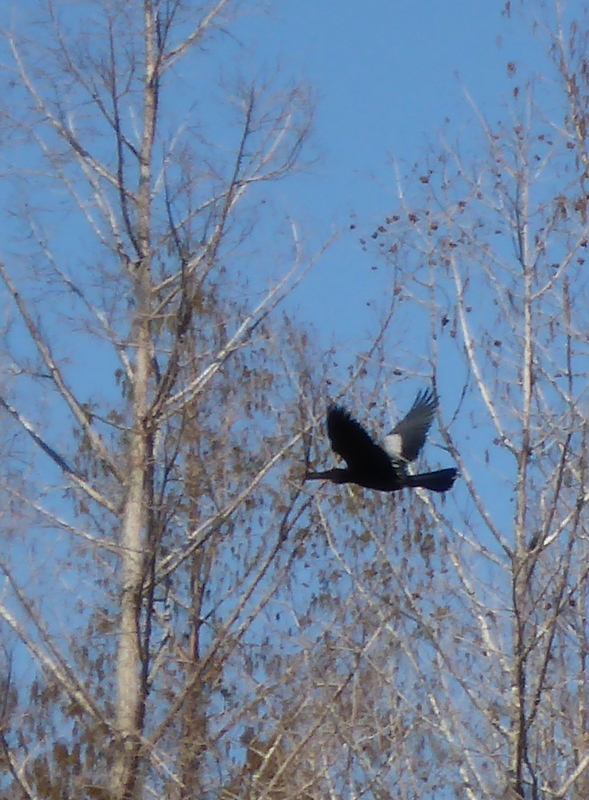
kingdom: Animalia
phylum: Chordata
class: Aves
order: Suliformes
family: Anhingidae
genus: Anhinga
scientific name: Anhinga anhinga
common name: Anhinga
